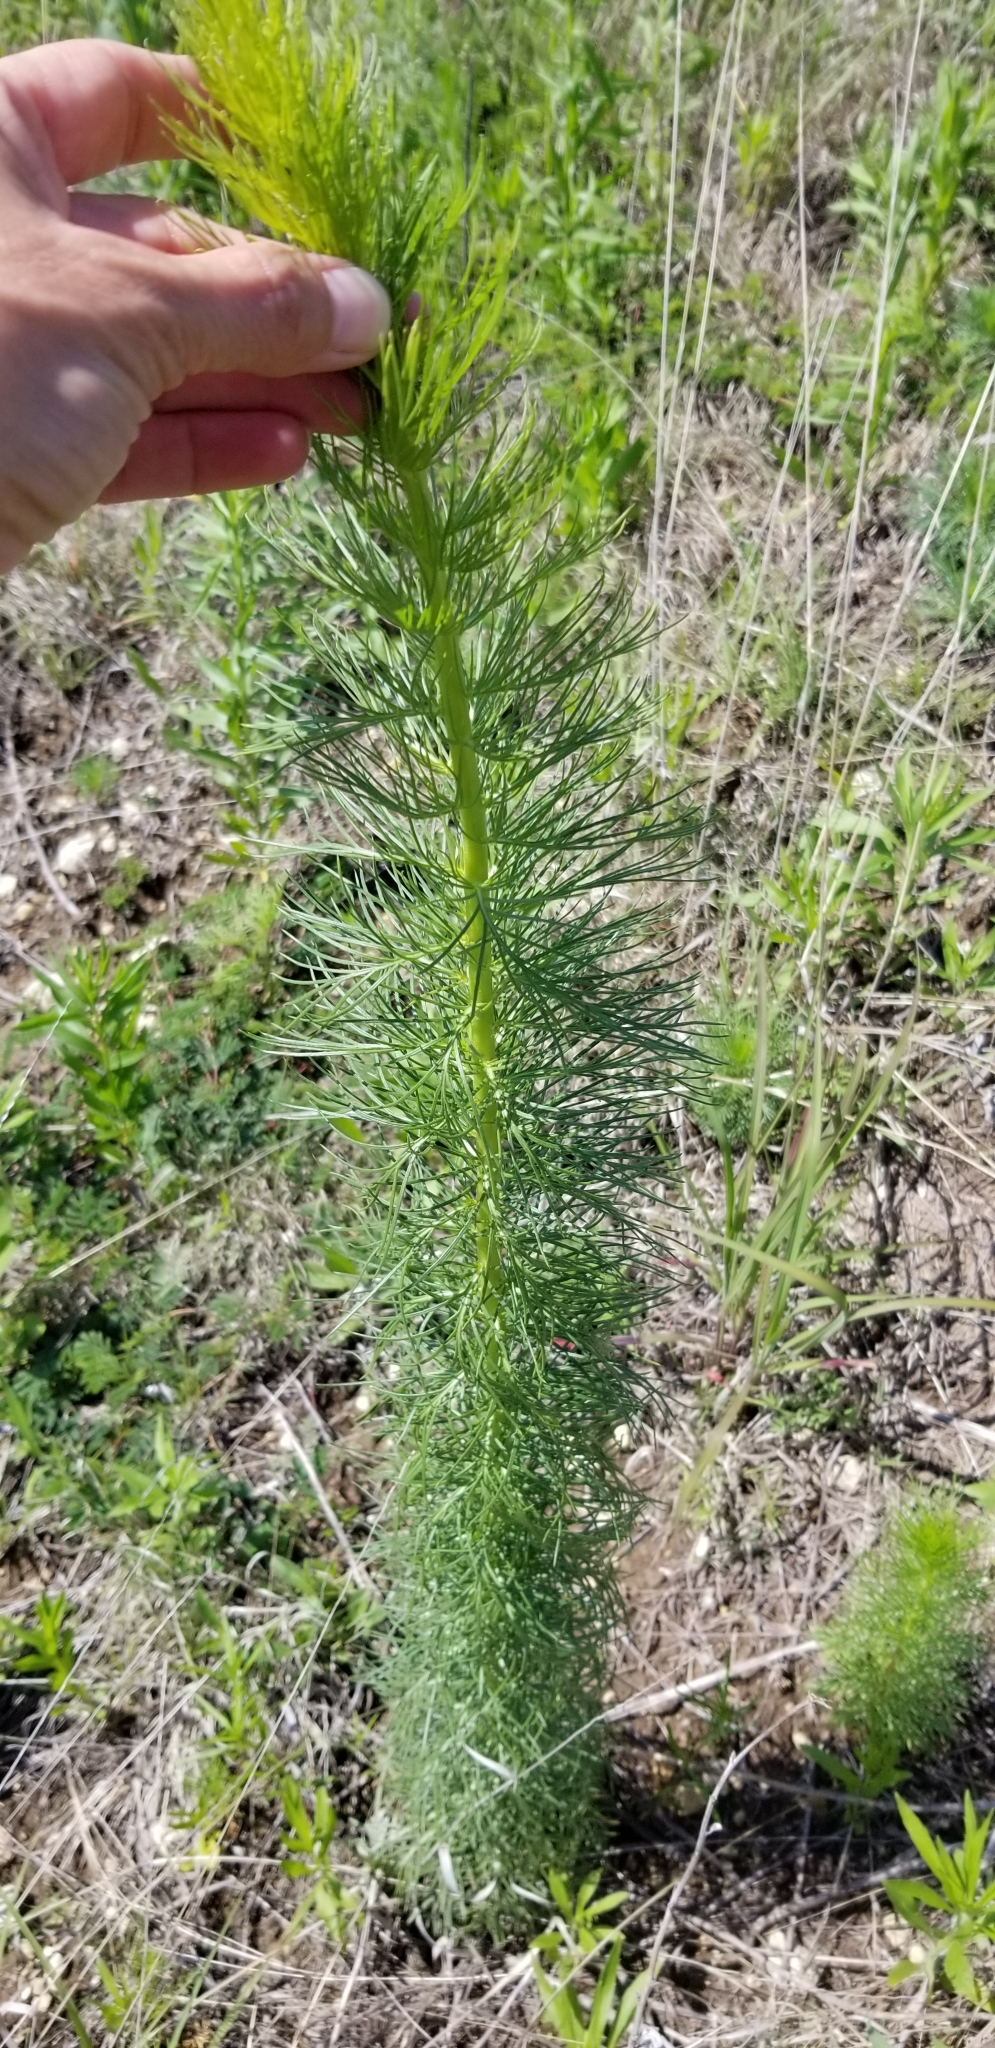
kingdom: Plantae
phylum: Tracheophyta
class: Magnoliopsida
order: Ericales
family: Polemoniaceae
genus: Ipomopsis
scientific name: Ipomopsis rubra
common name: Skyrocket
